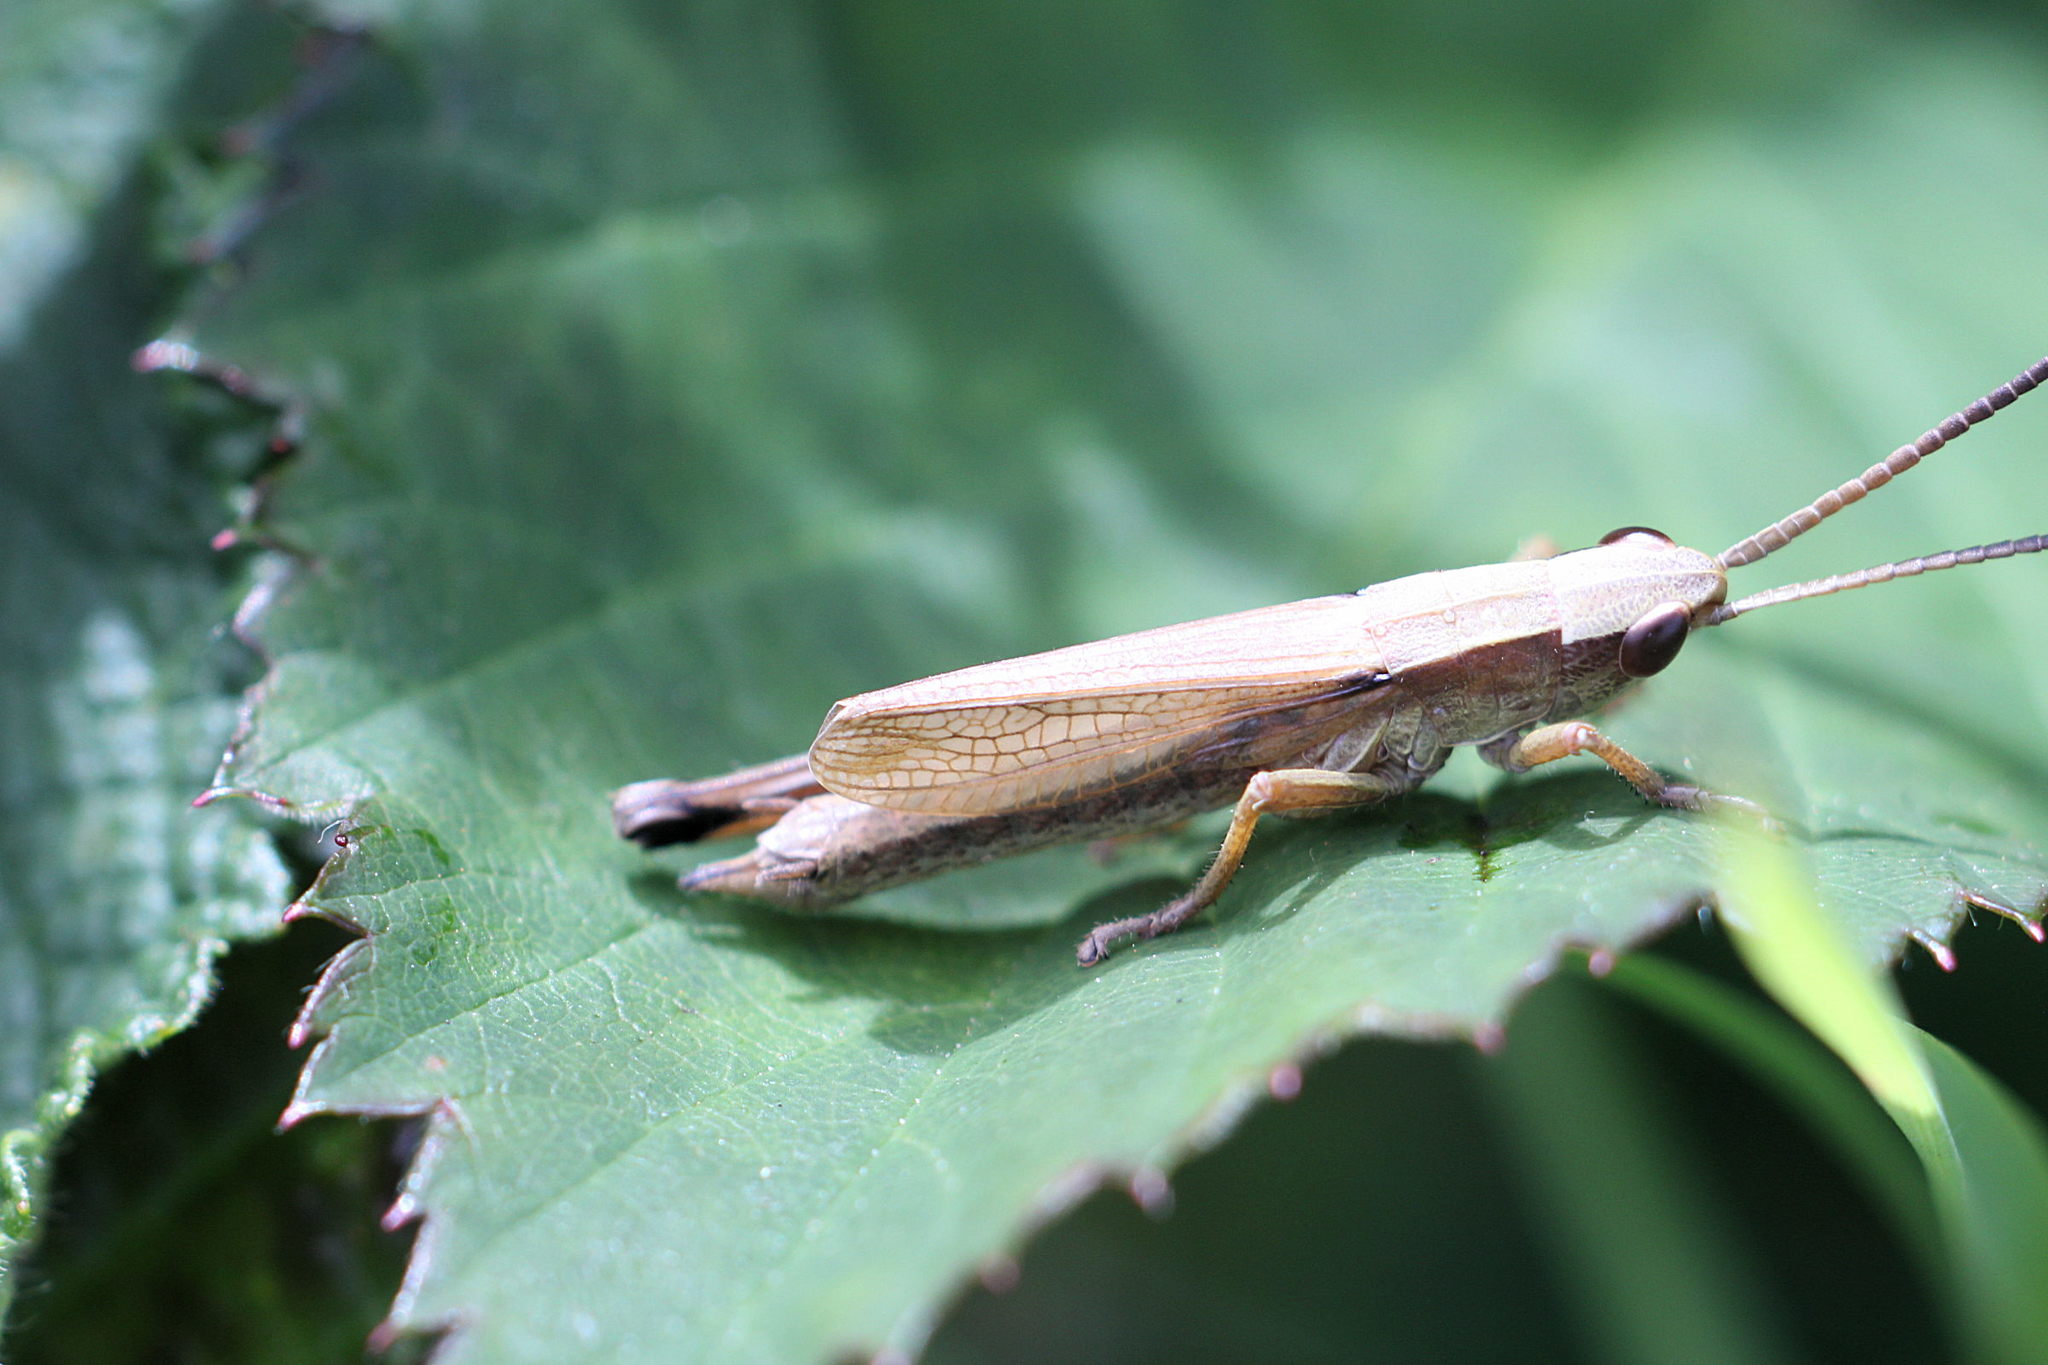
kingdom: Animalia
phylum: Arthropoda
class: Insecta
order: Orthoptera
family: Acrididae
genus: Chrysochraon
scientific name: Chrysochraon dispar
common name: Large gold grasshopper
